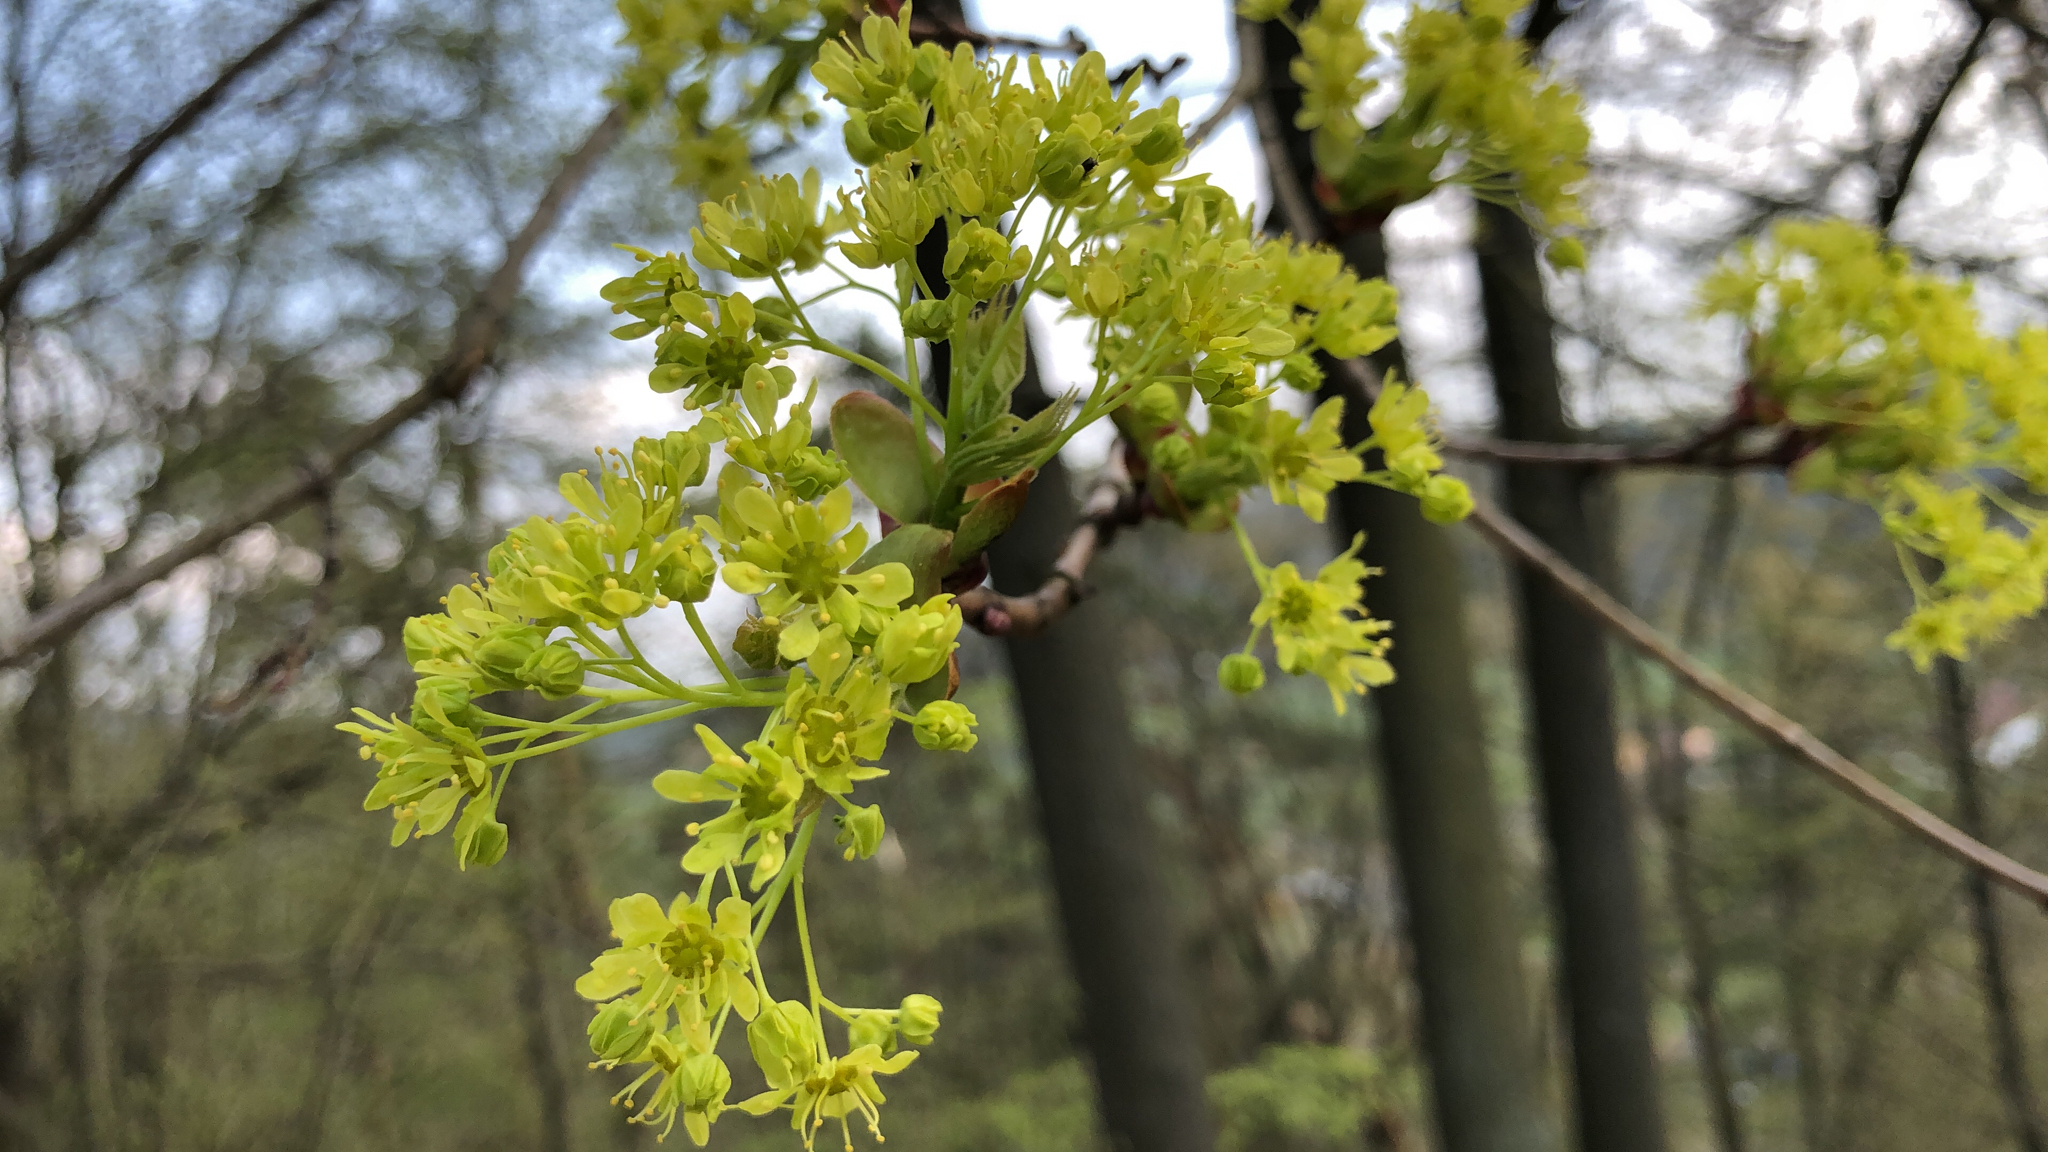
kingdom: Plantae
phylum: Tracheophyta
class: Magnoliopsida
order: Sapindales
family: Sapindaceae
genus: Acer
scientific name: Acer platanoides
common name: Norway maple
